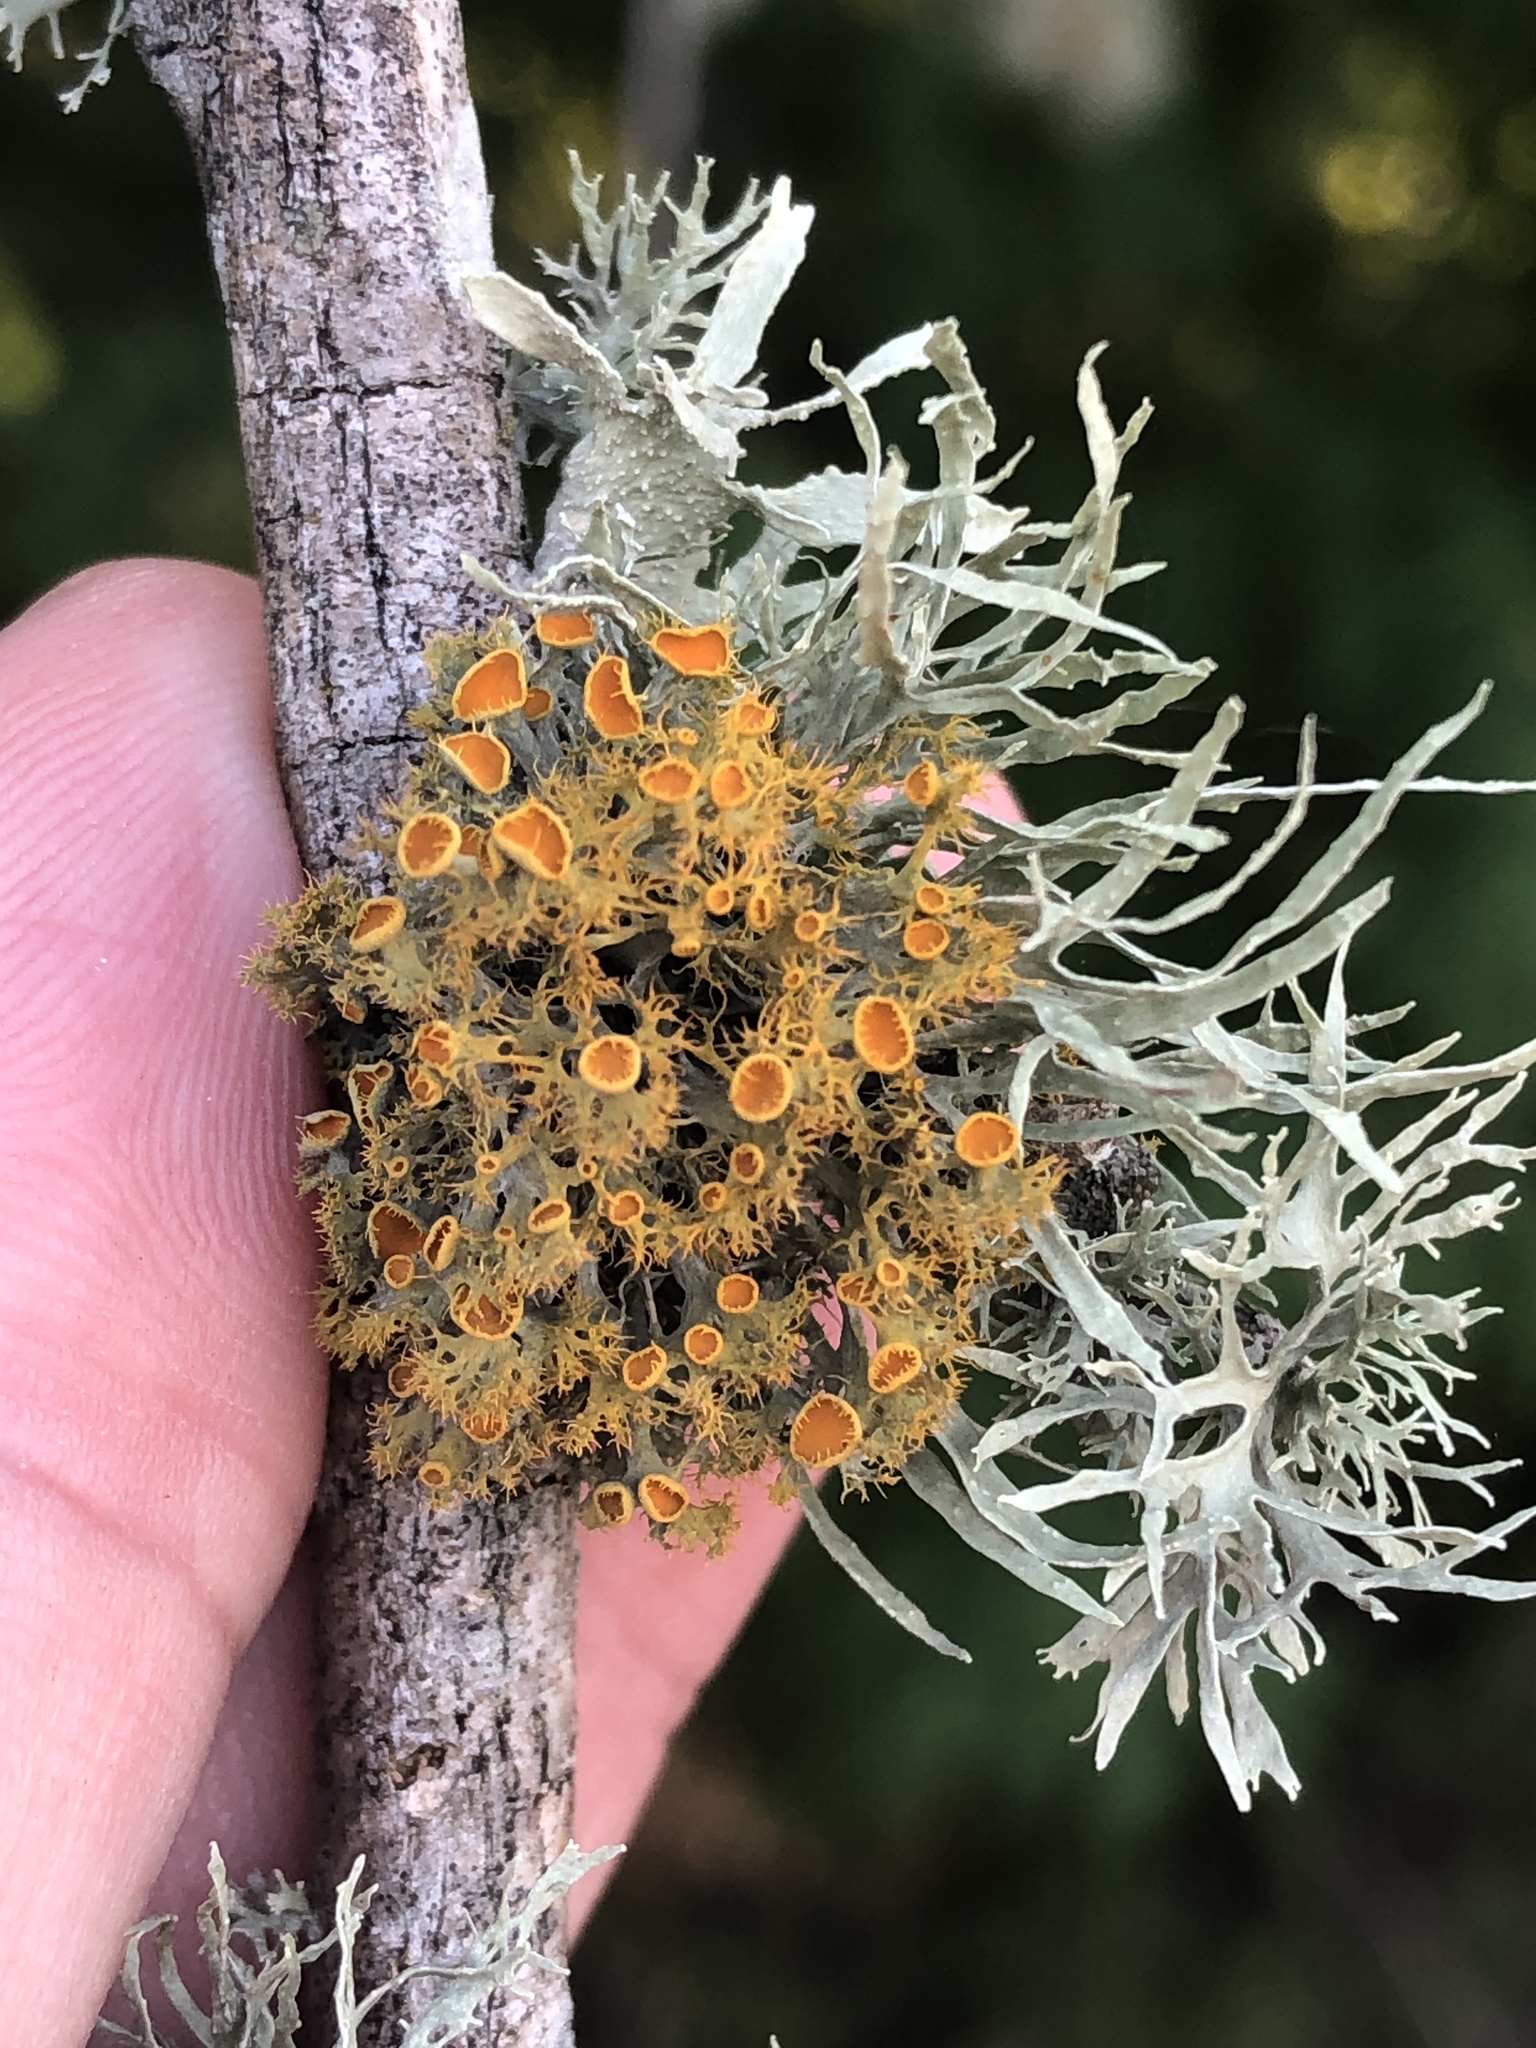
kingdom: Fungi
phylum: Ascomycota
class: Lecanoromycetes
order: Teloschistales
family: Teloschistaceae
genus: Niorma
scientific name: Niorma chrysophthalma
